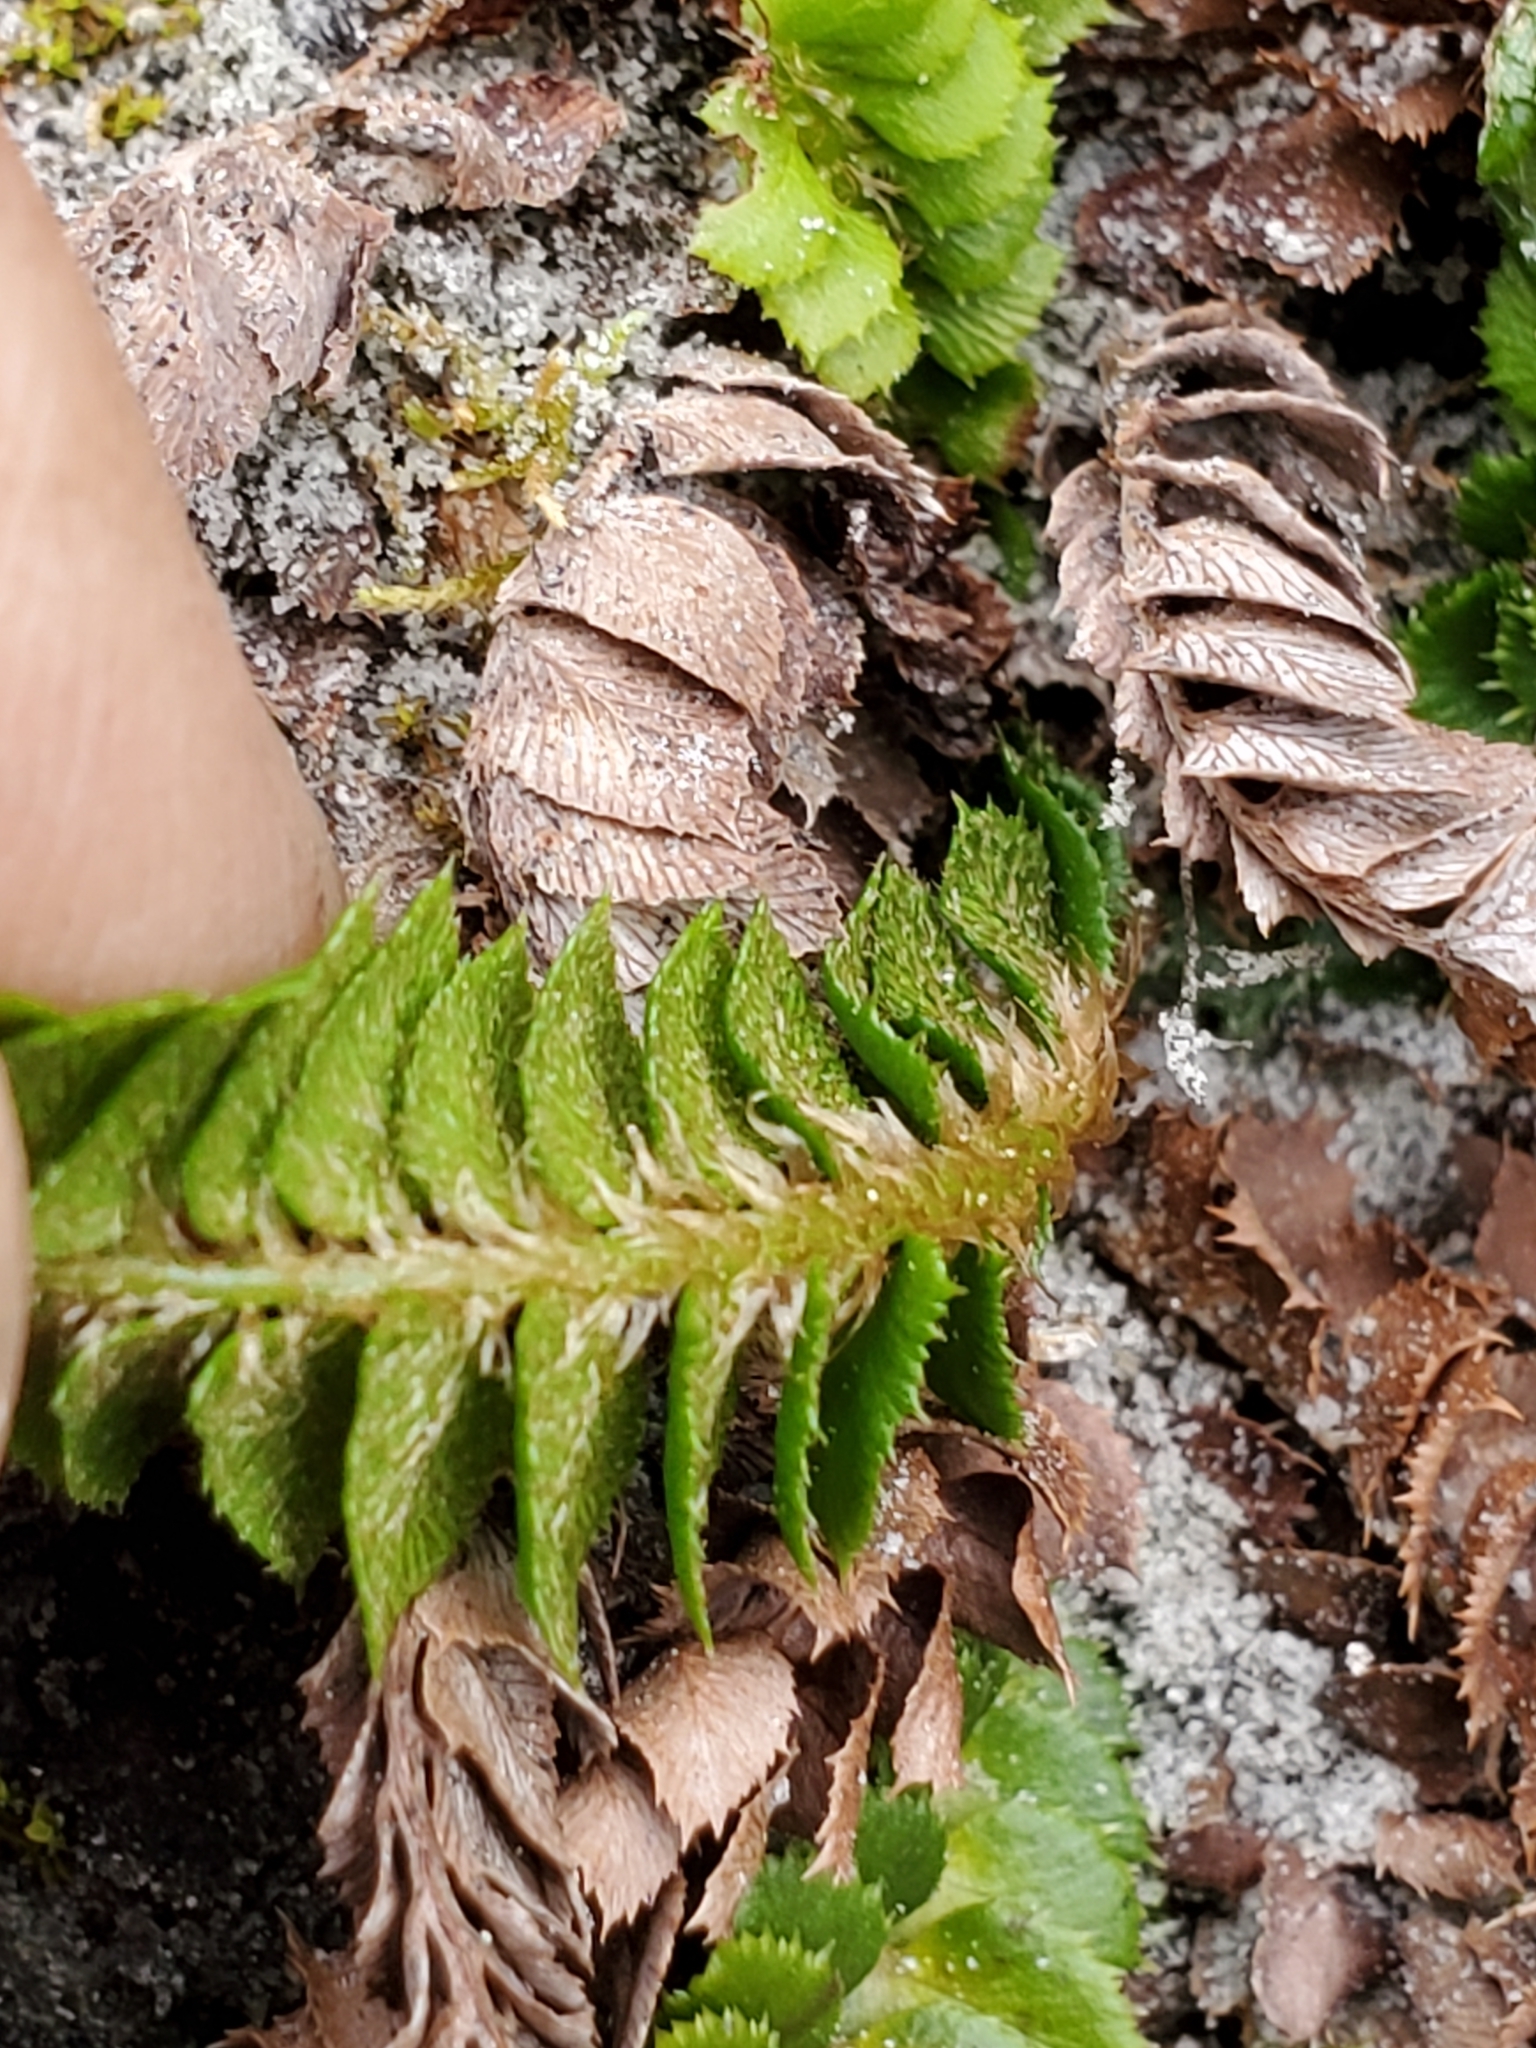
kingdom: Plantae
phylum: Tracheophyta
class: Polypodiopsida
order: Polypodiales
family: Dryopteridaceae
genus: Polystichum
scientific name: Polystichum lonchitis
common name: Holly fern
